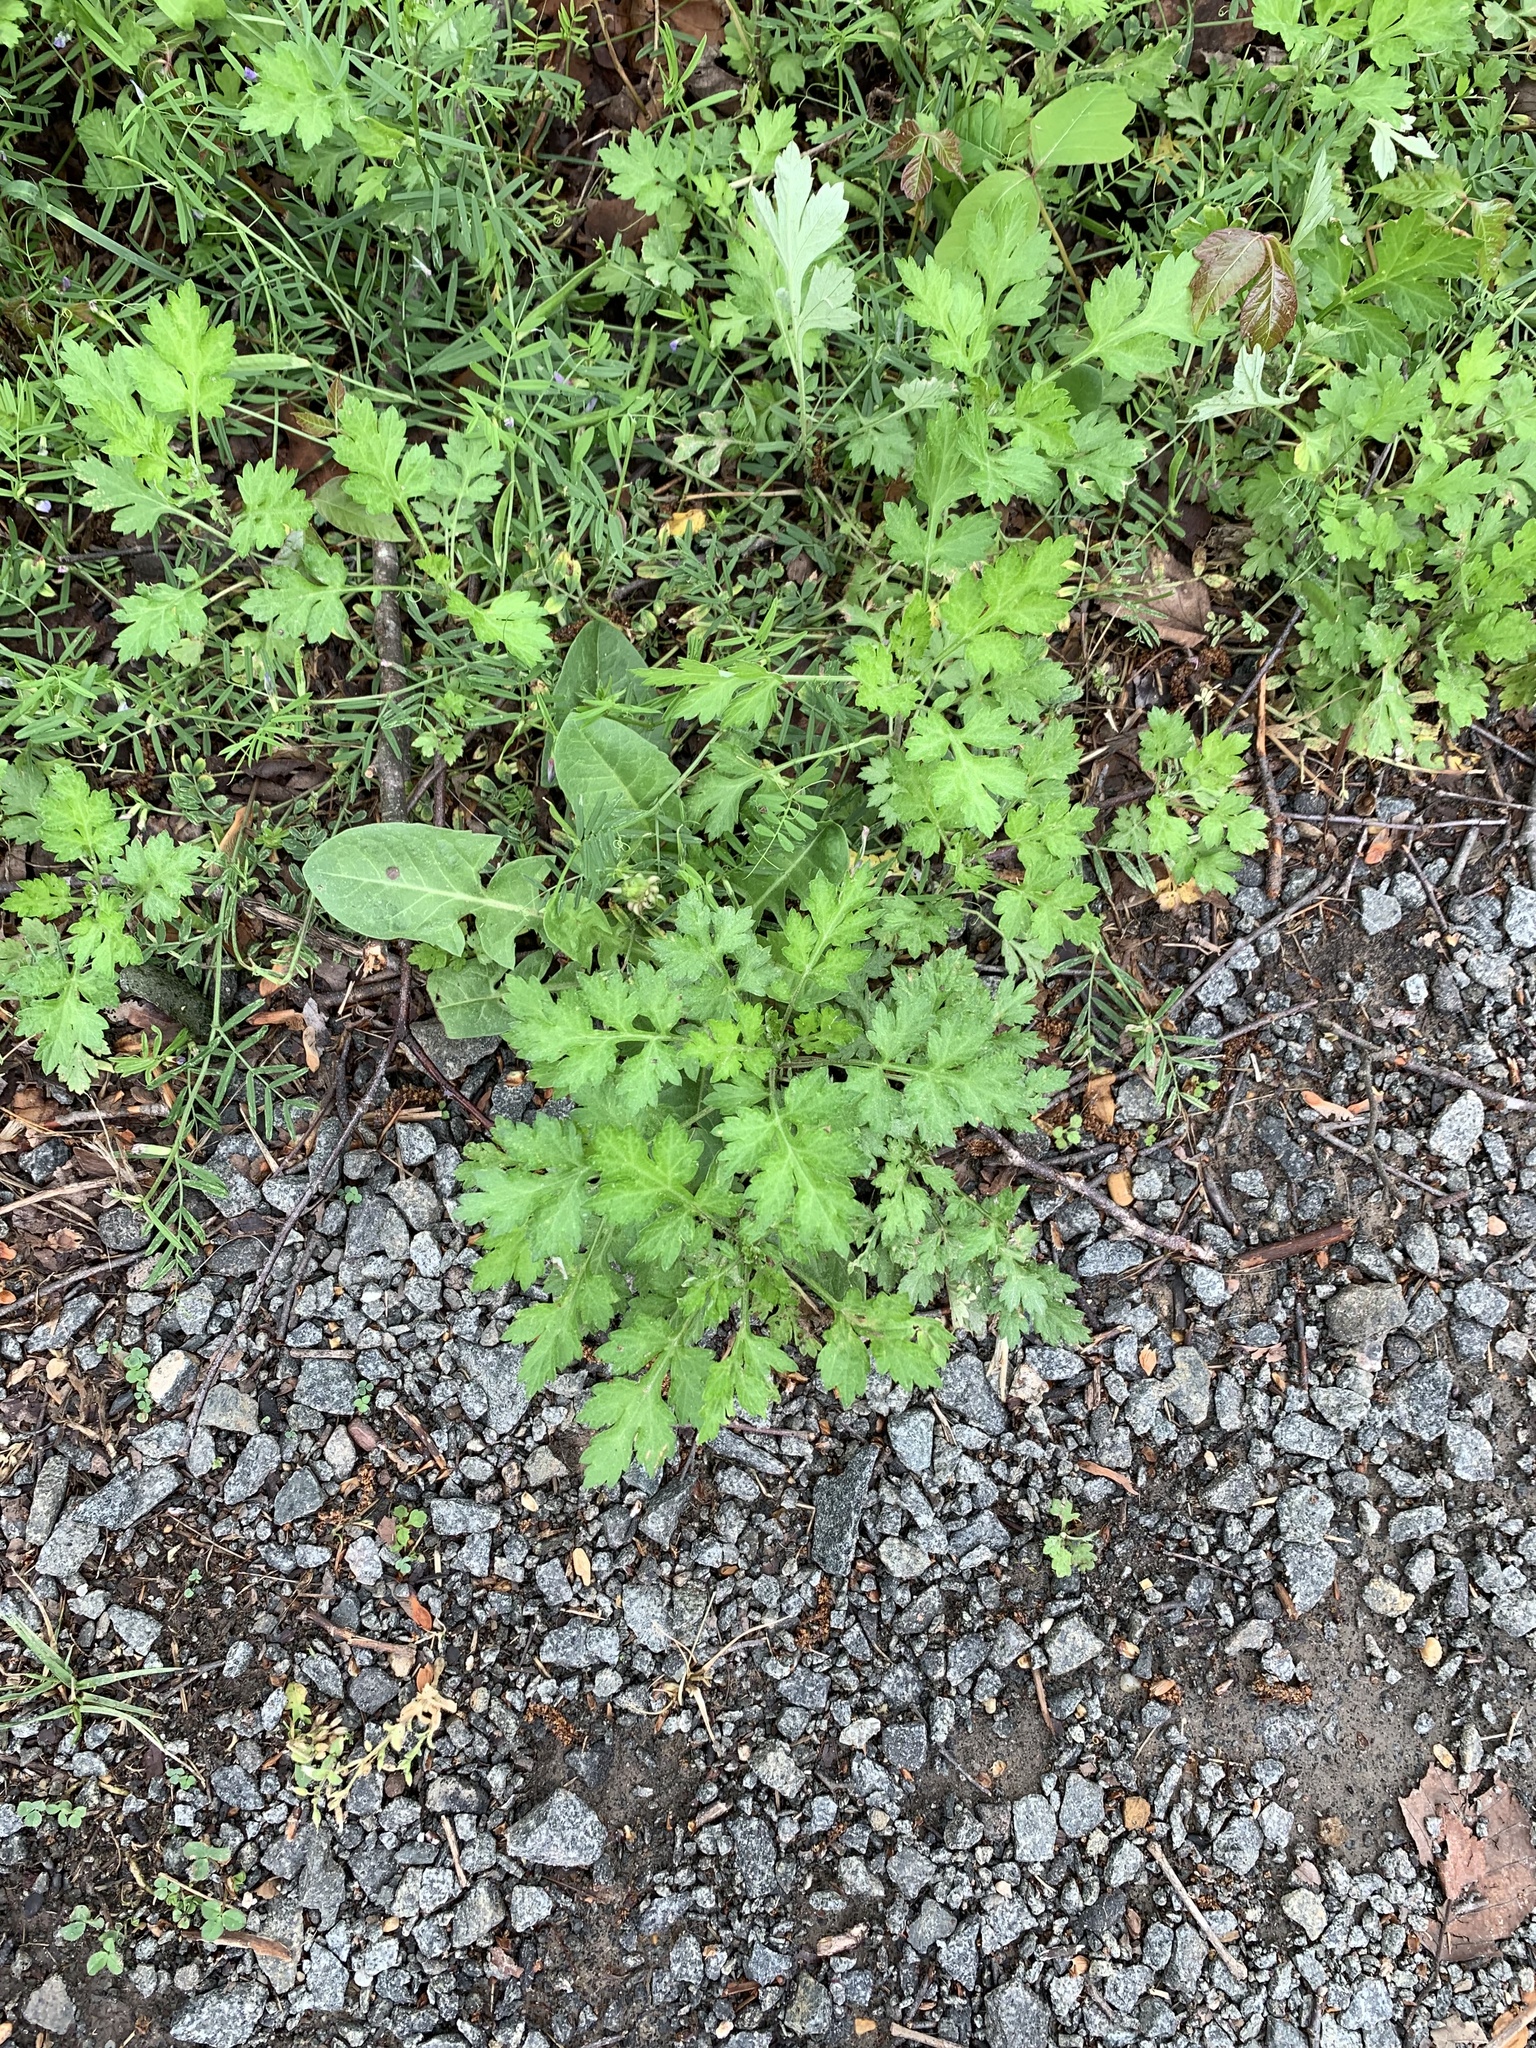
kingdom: Plantae
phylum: Tracheophyta
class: Magnoliopsida
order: Asterales
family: Asteraceae
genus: Artemisia
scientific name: Artemisia vulgaris
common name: Mugwort
